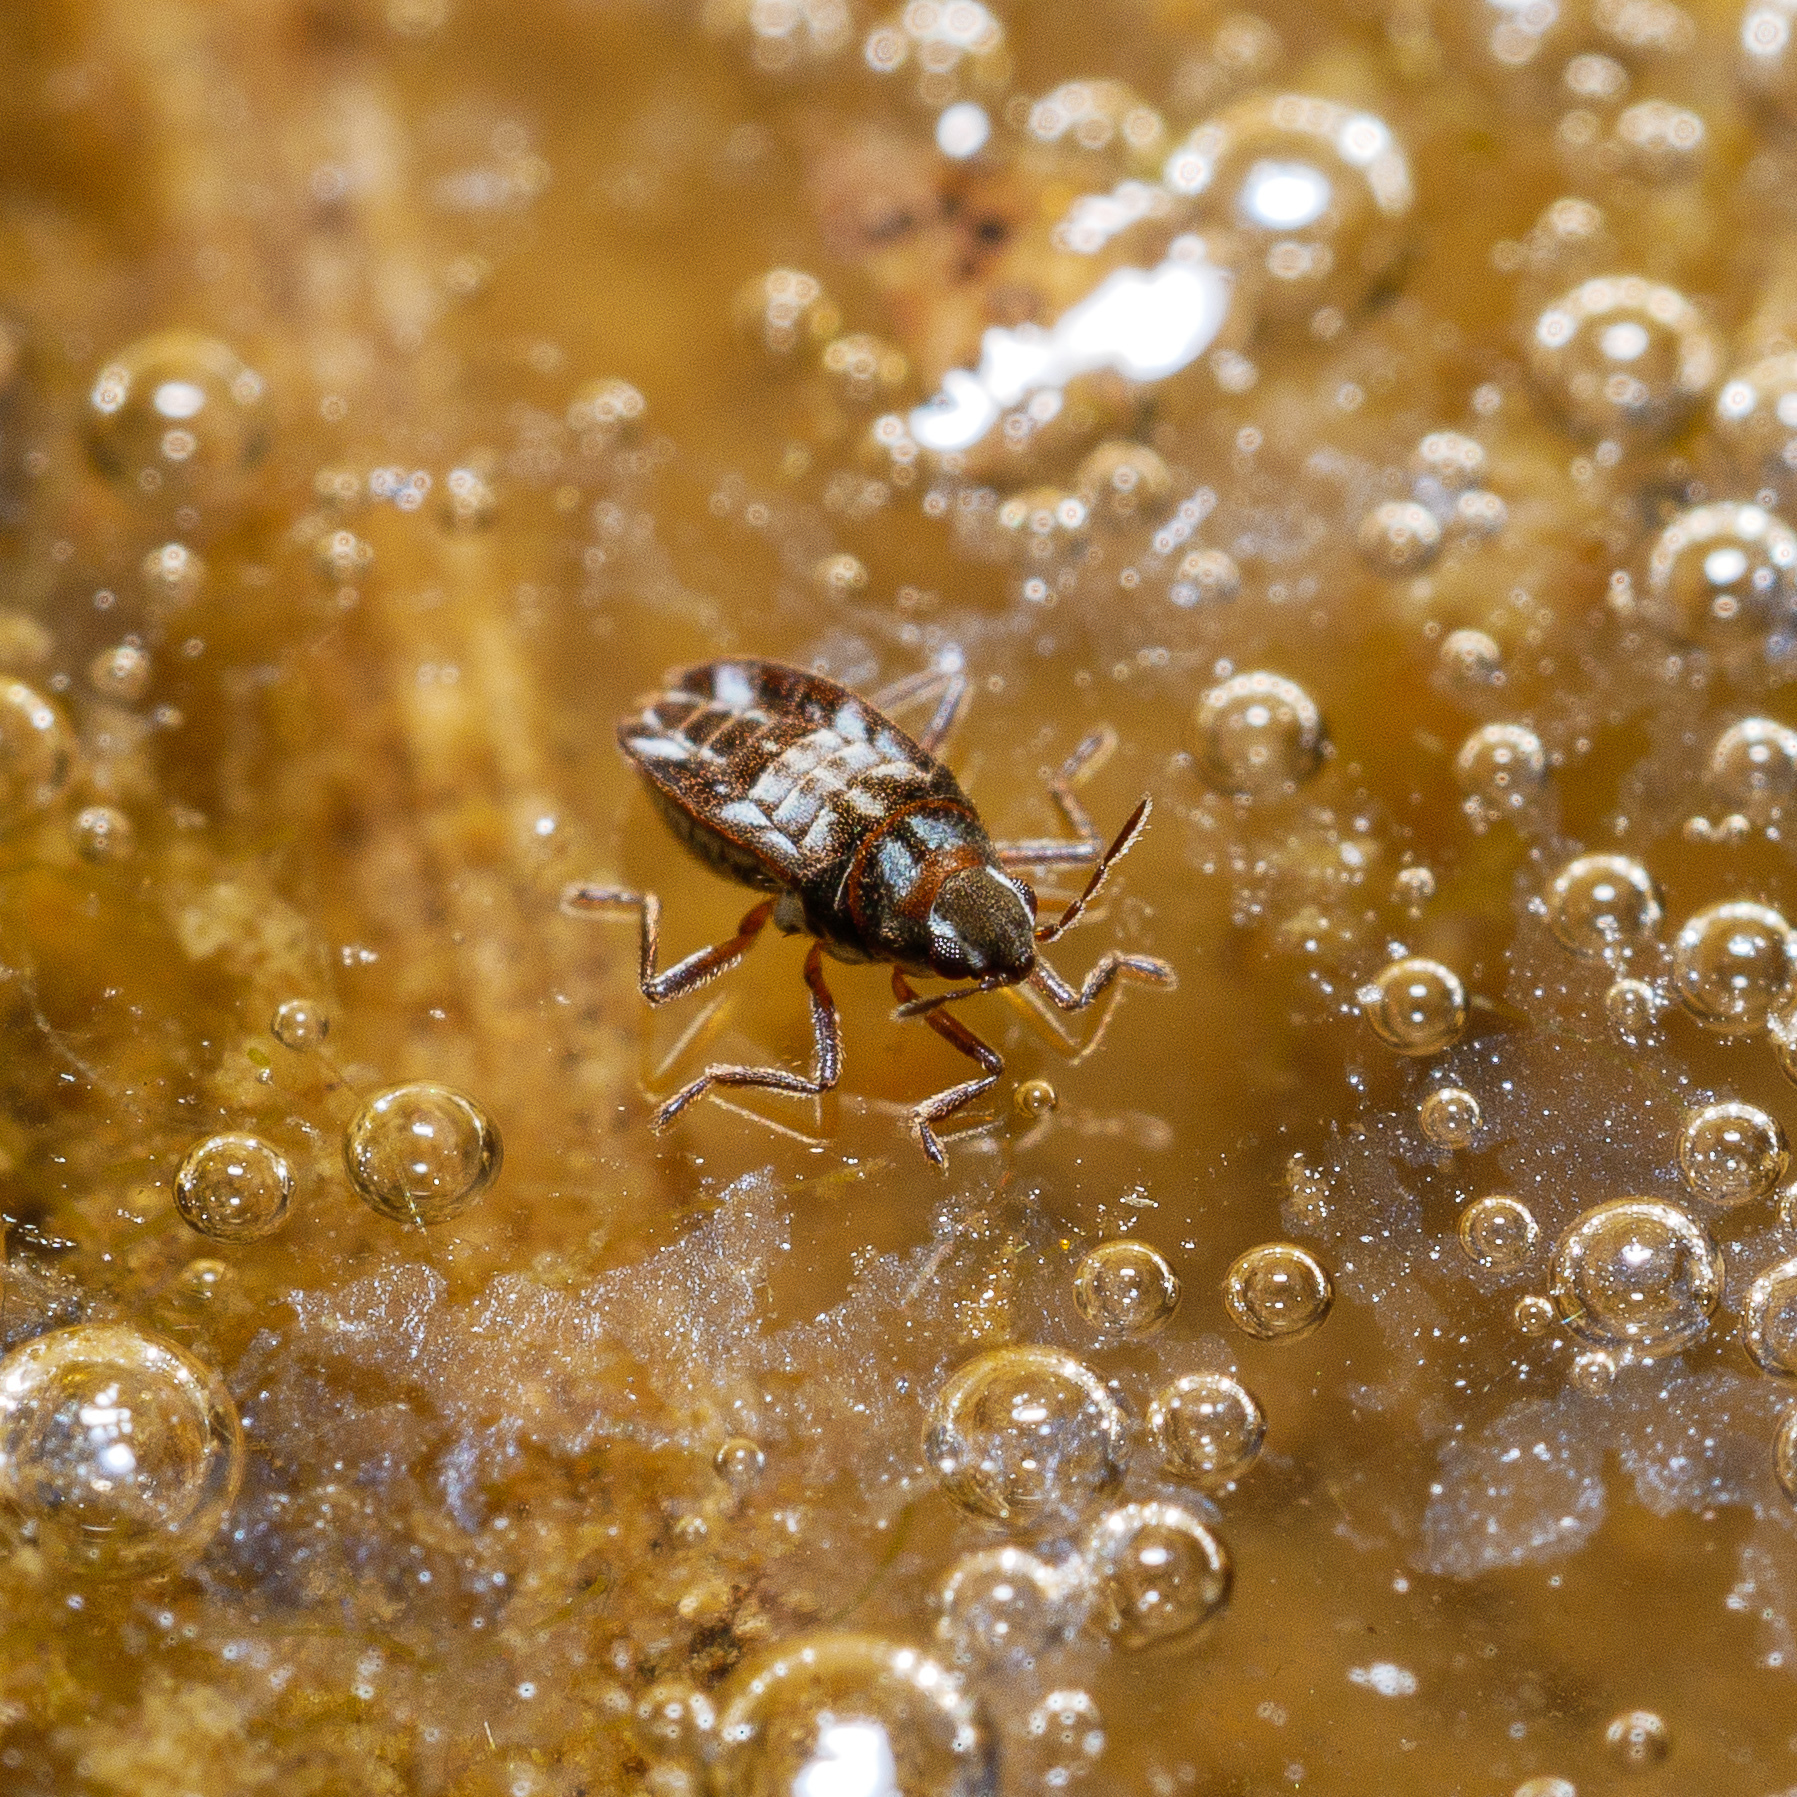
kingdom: Animalia
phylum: Arthropoda
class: Insecta
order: Hemiptera
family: Veliidae
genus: Microvelia
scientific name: Microvelia macgregori
